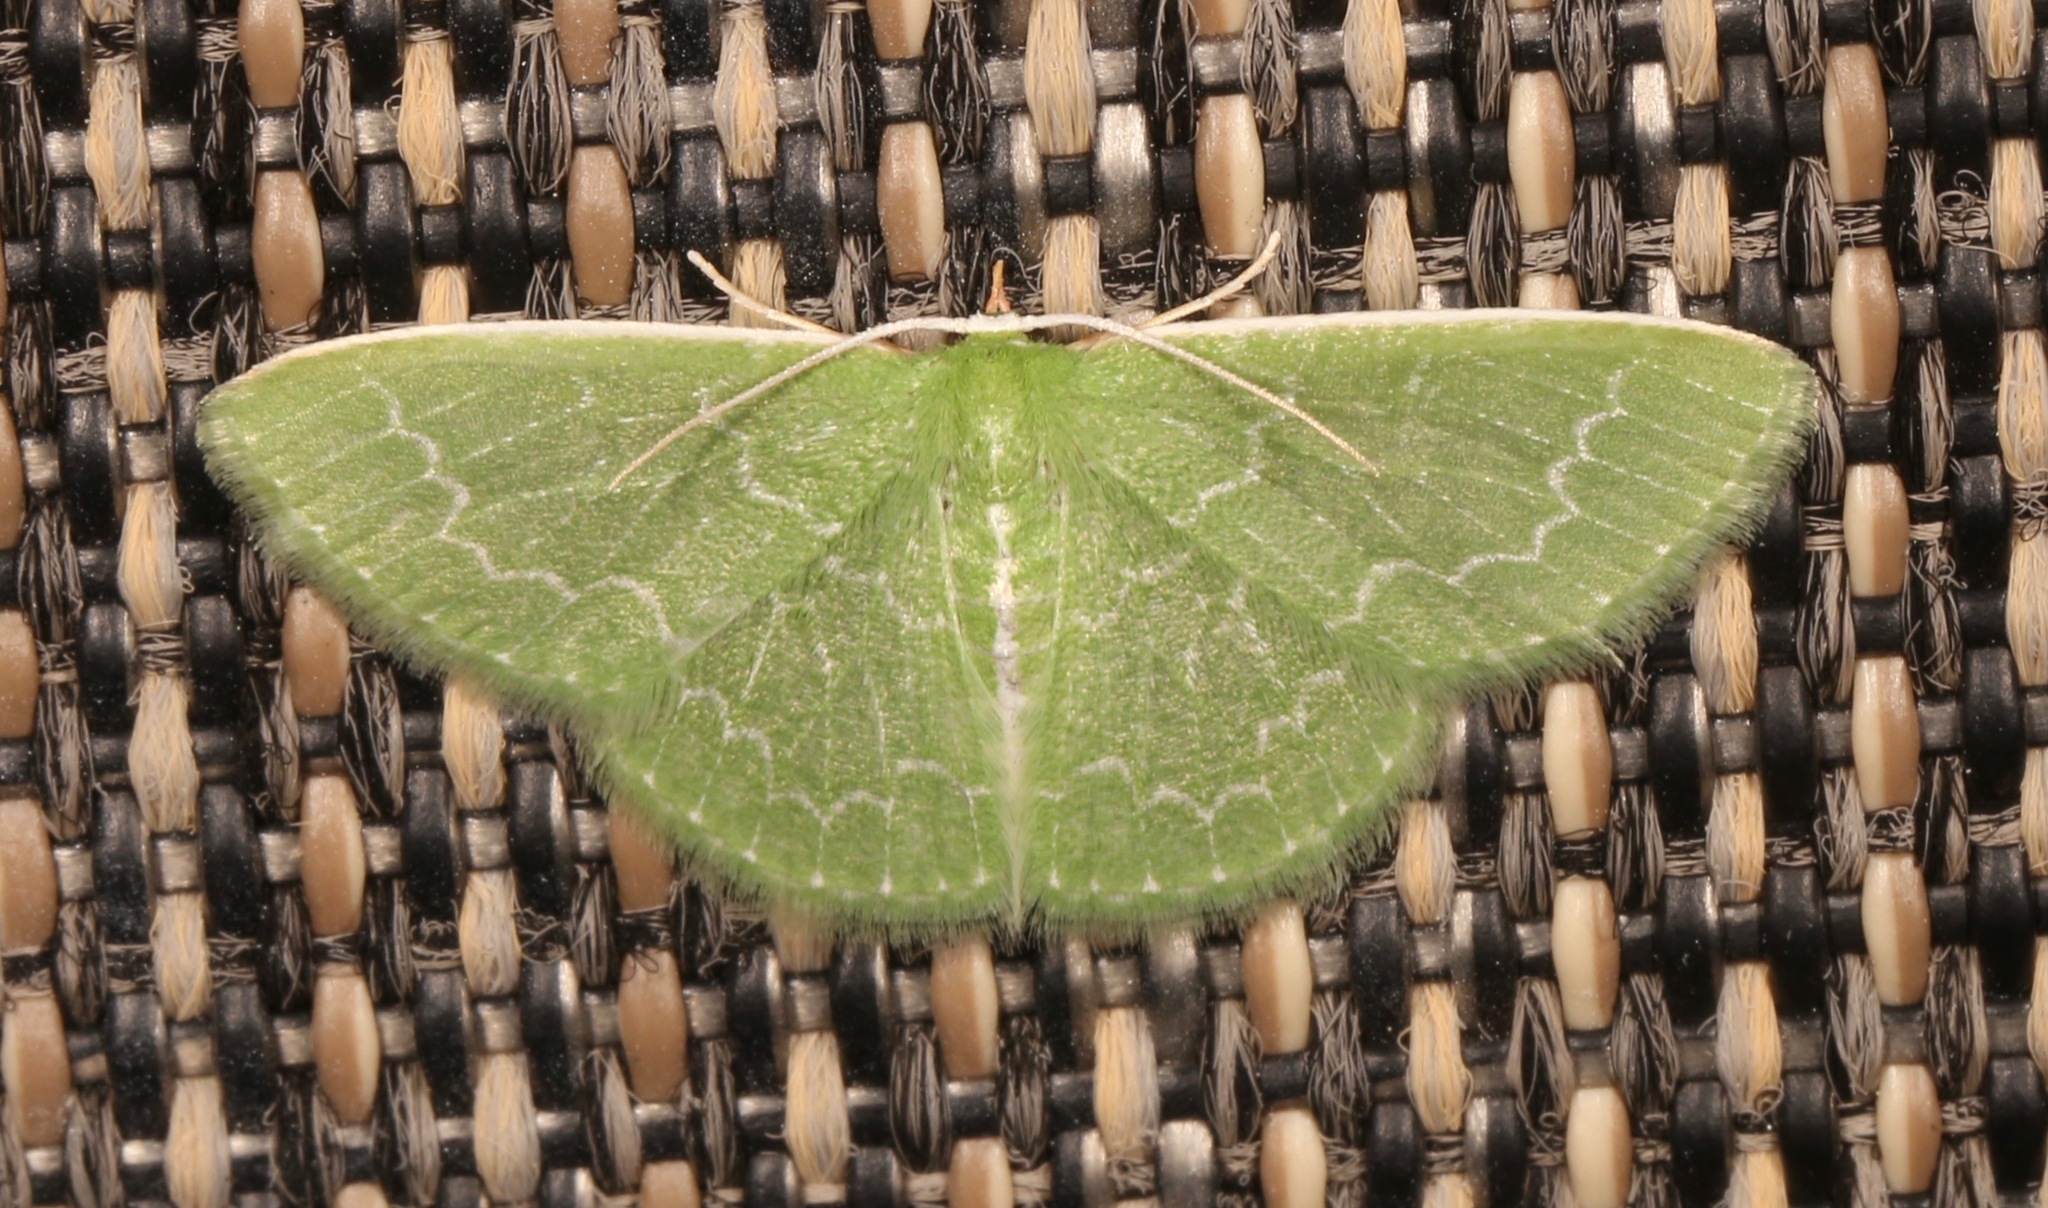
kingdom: Animalia
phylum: Arthropoda
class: Insecta
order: Lepidoptera
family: Geometridae
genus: Synchlora
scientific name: Synchlora frondaria
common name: Southern emerald
